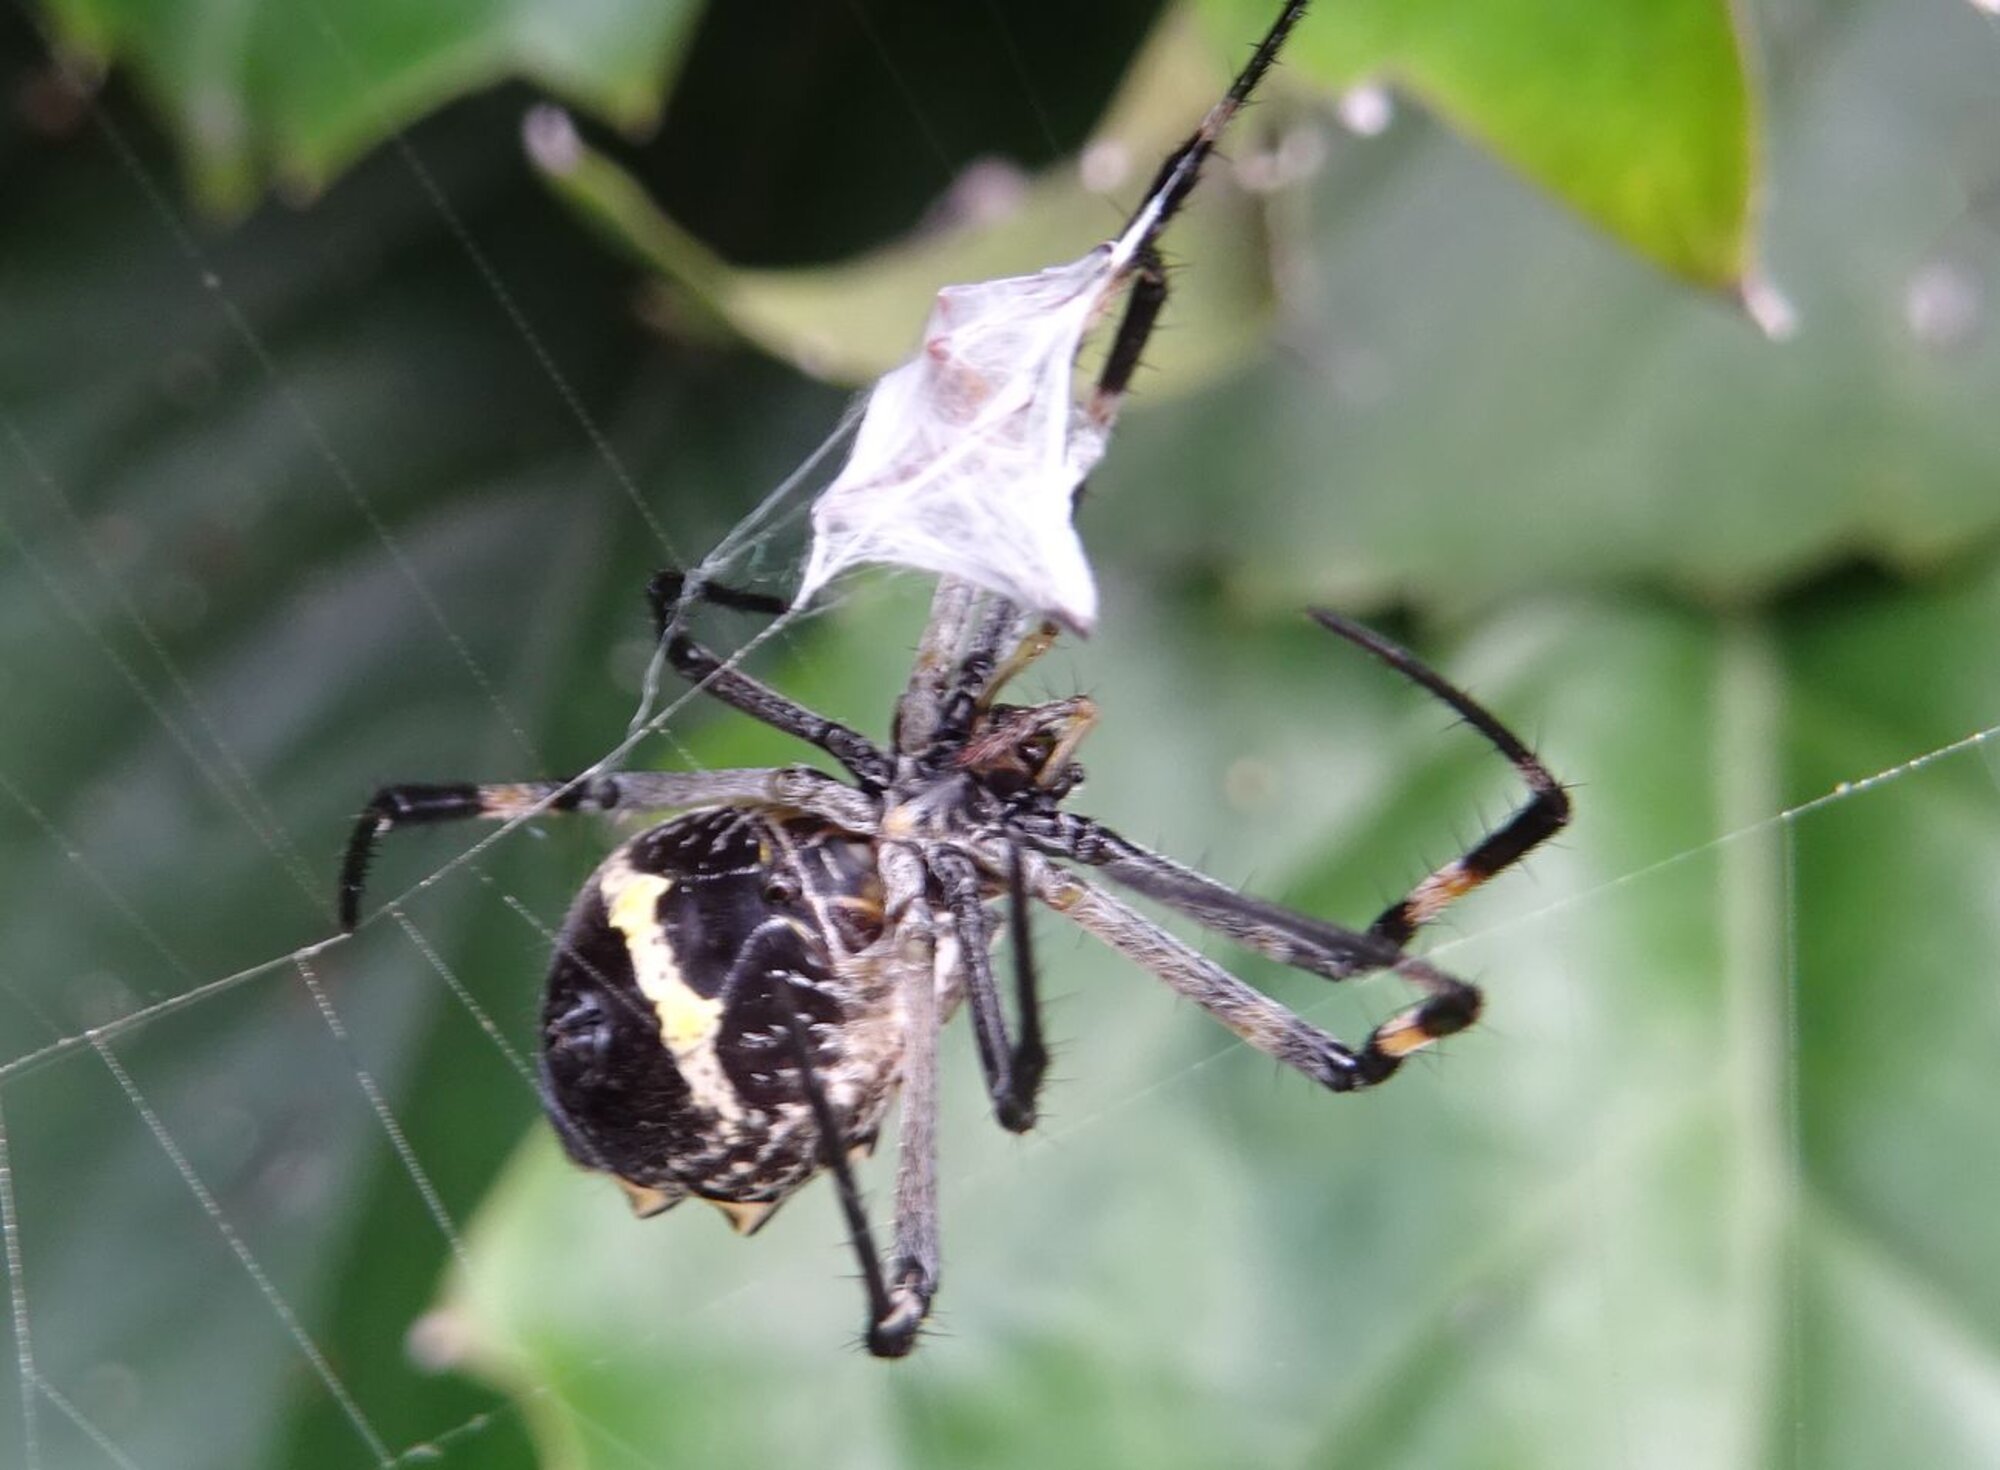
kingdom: Animalia
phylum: Arthropoda
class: Arachnida
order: Araneae
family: Araneidae
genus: Argiope
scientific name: Argiope argentata
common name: Orb weavers
